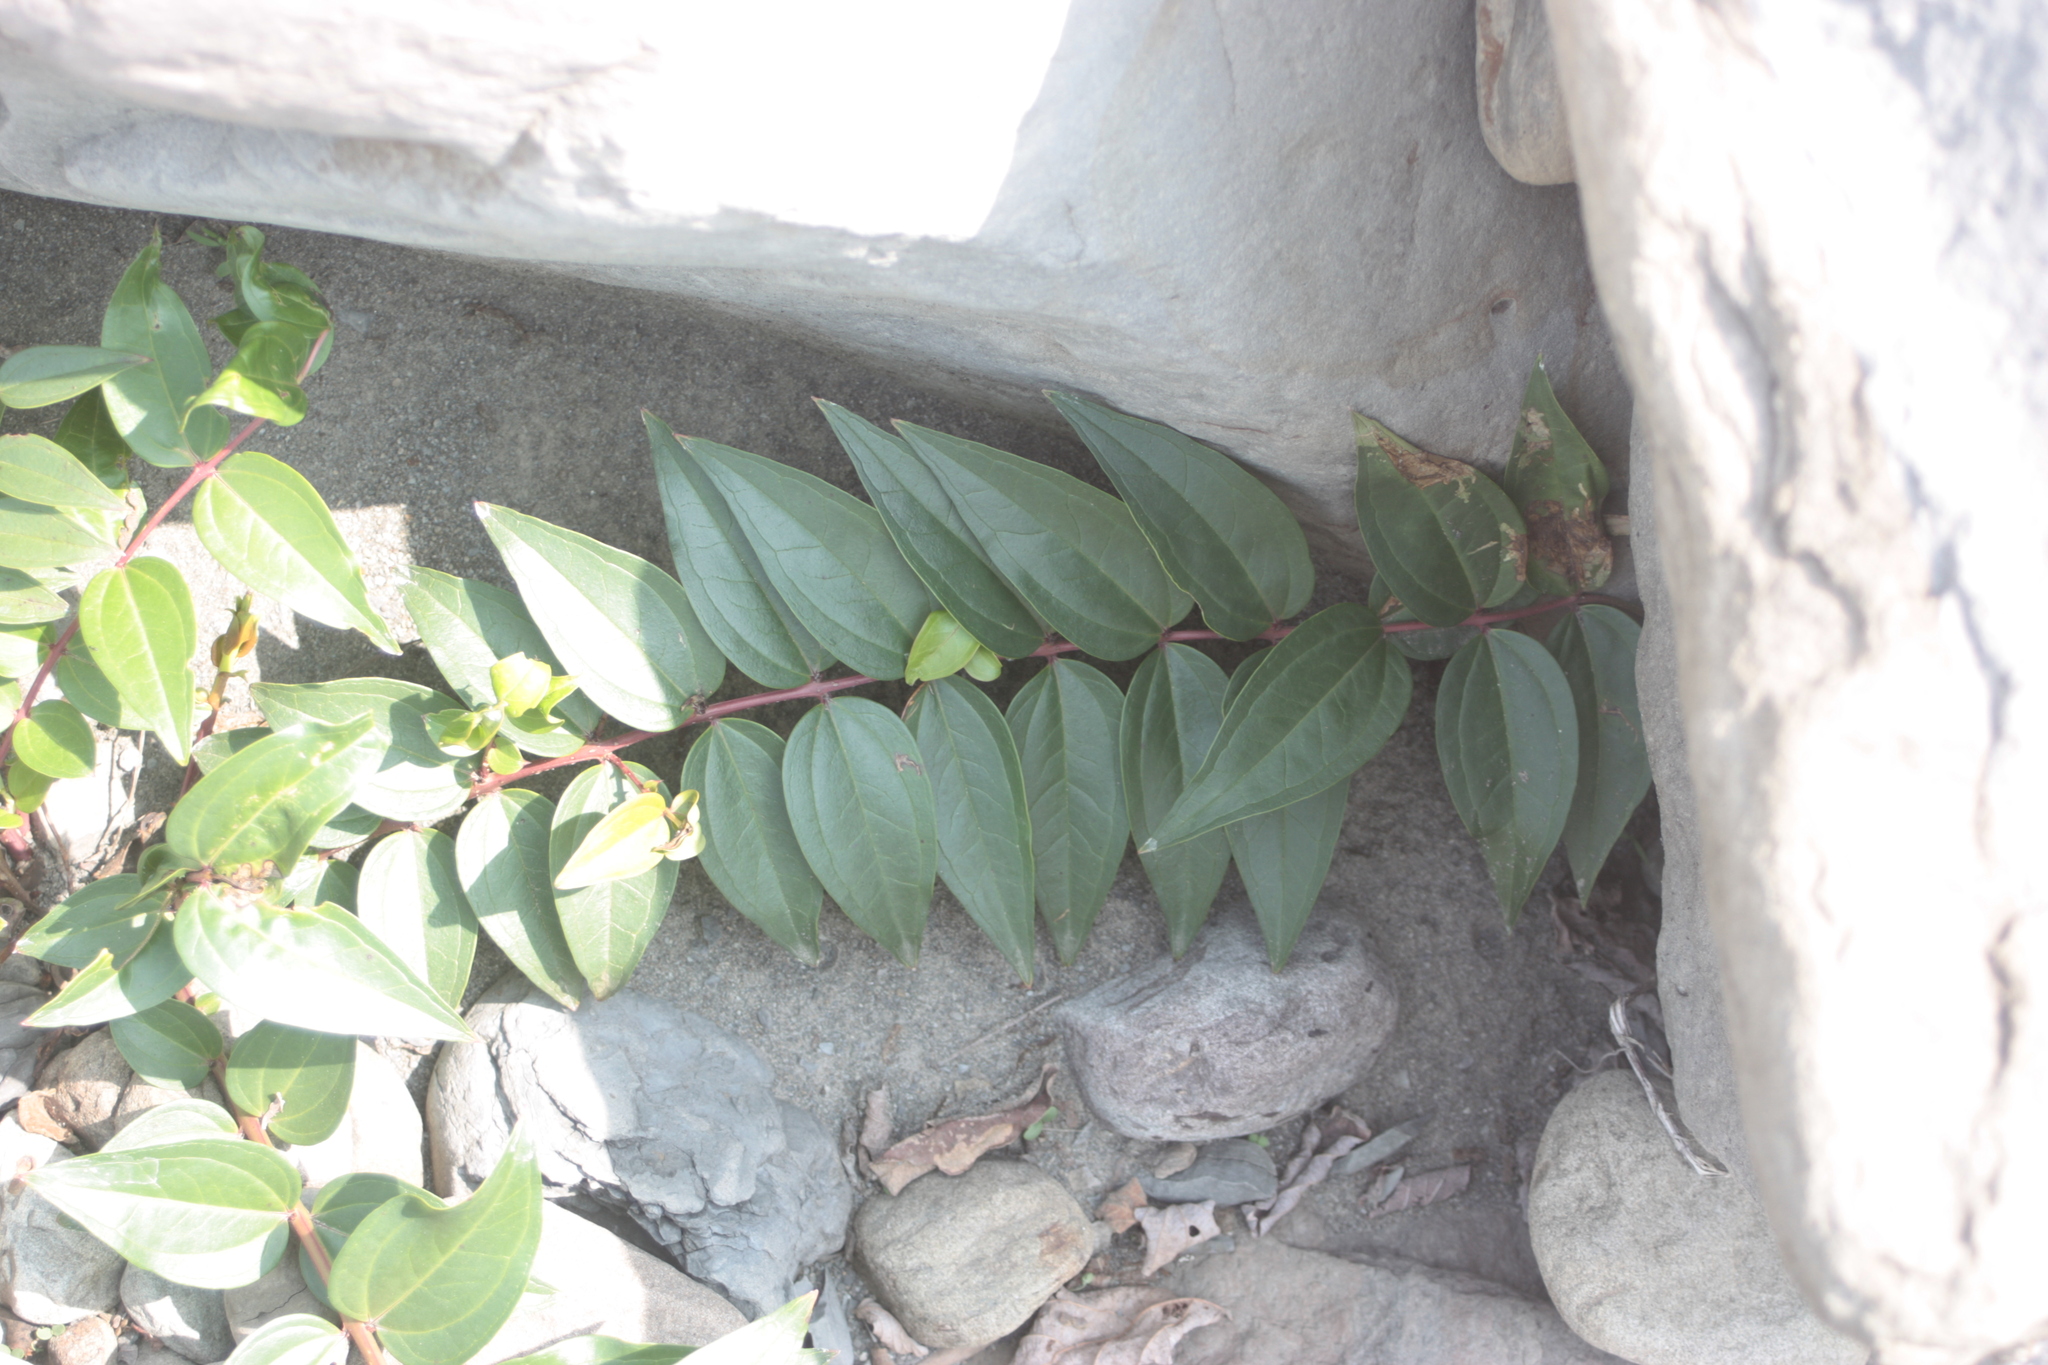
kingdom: Plantae
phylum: Tracheophyta
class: Magnoliopsida
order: Cucurbitales
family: Coriariaceae
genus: Coriaria
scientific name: Coriaria japonica
